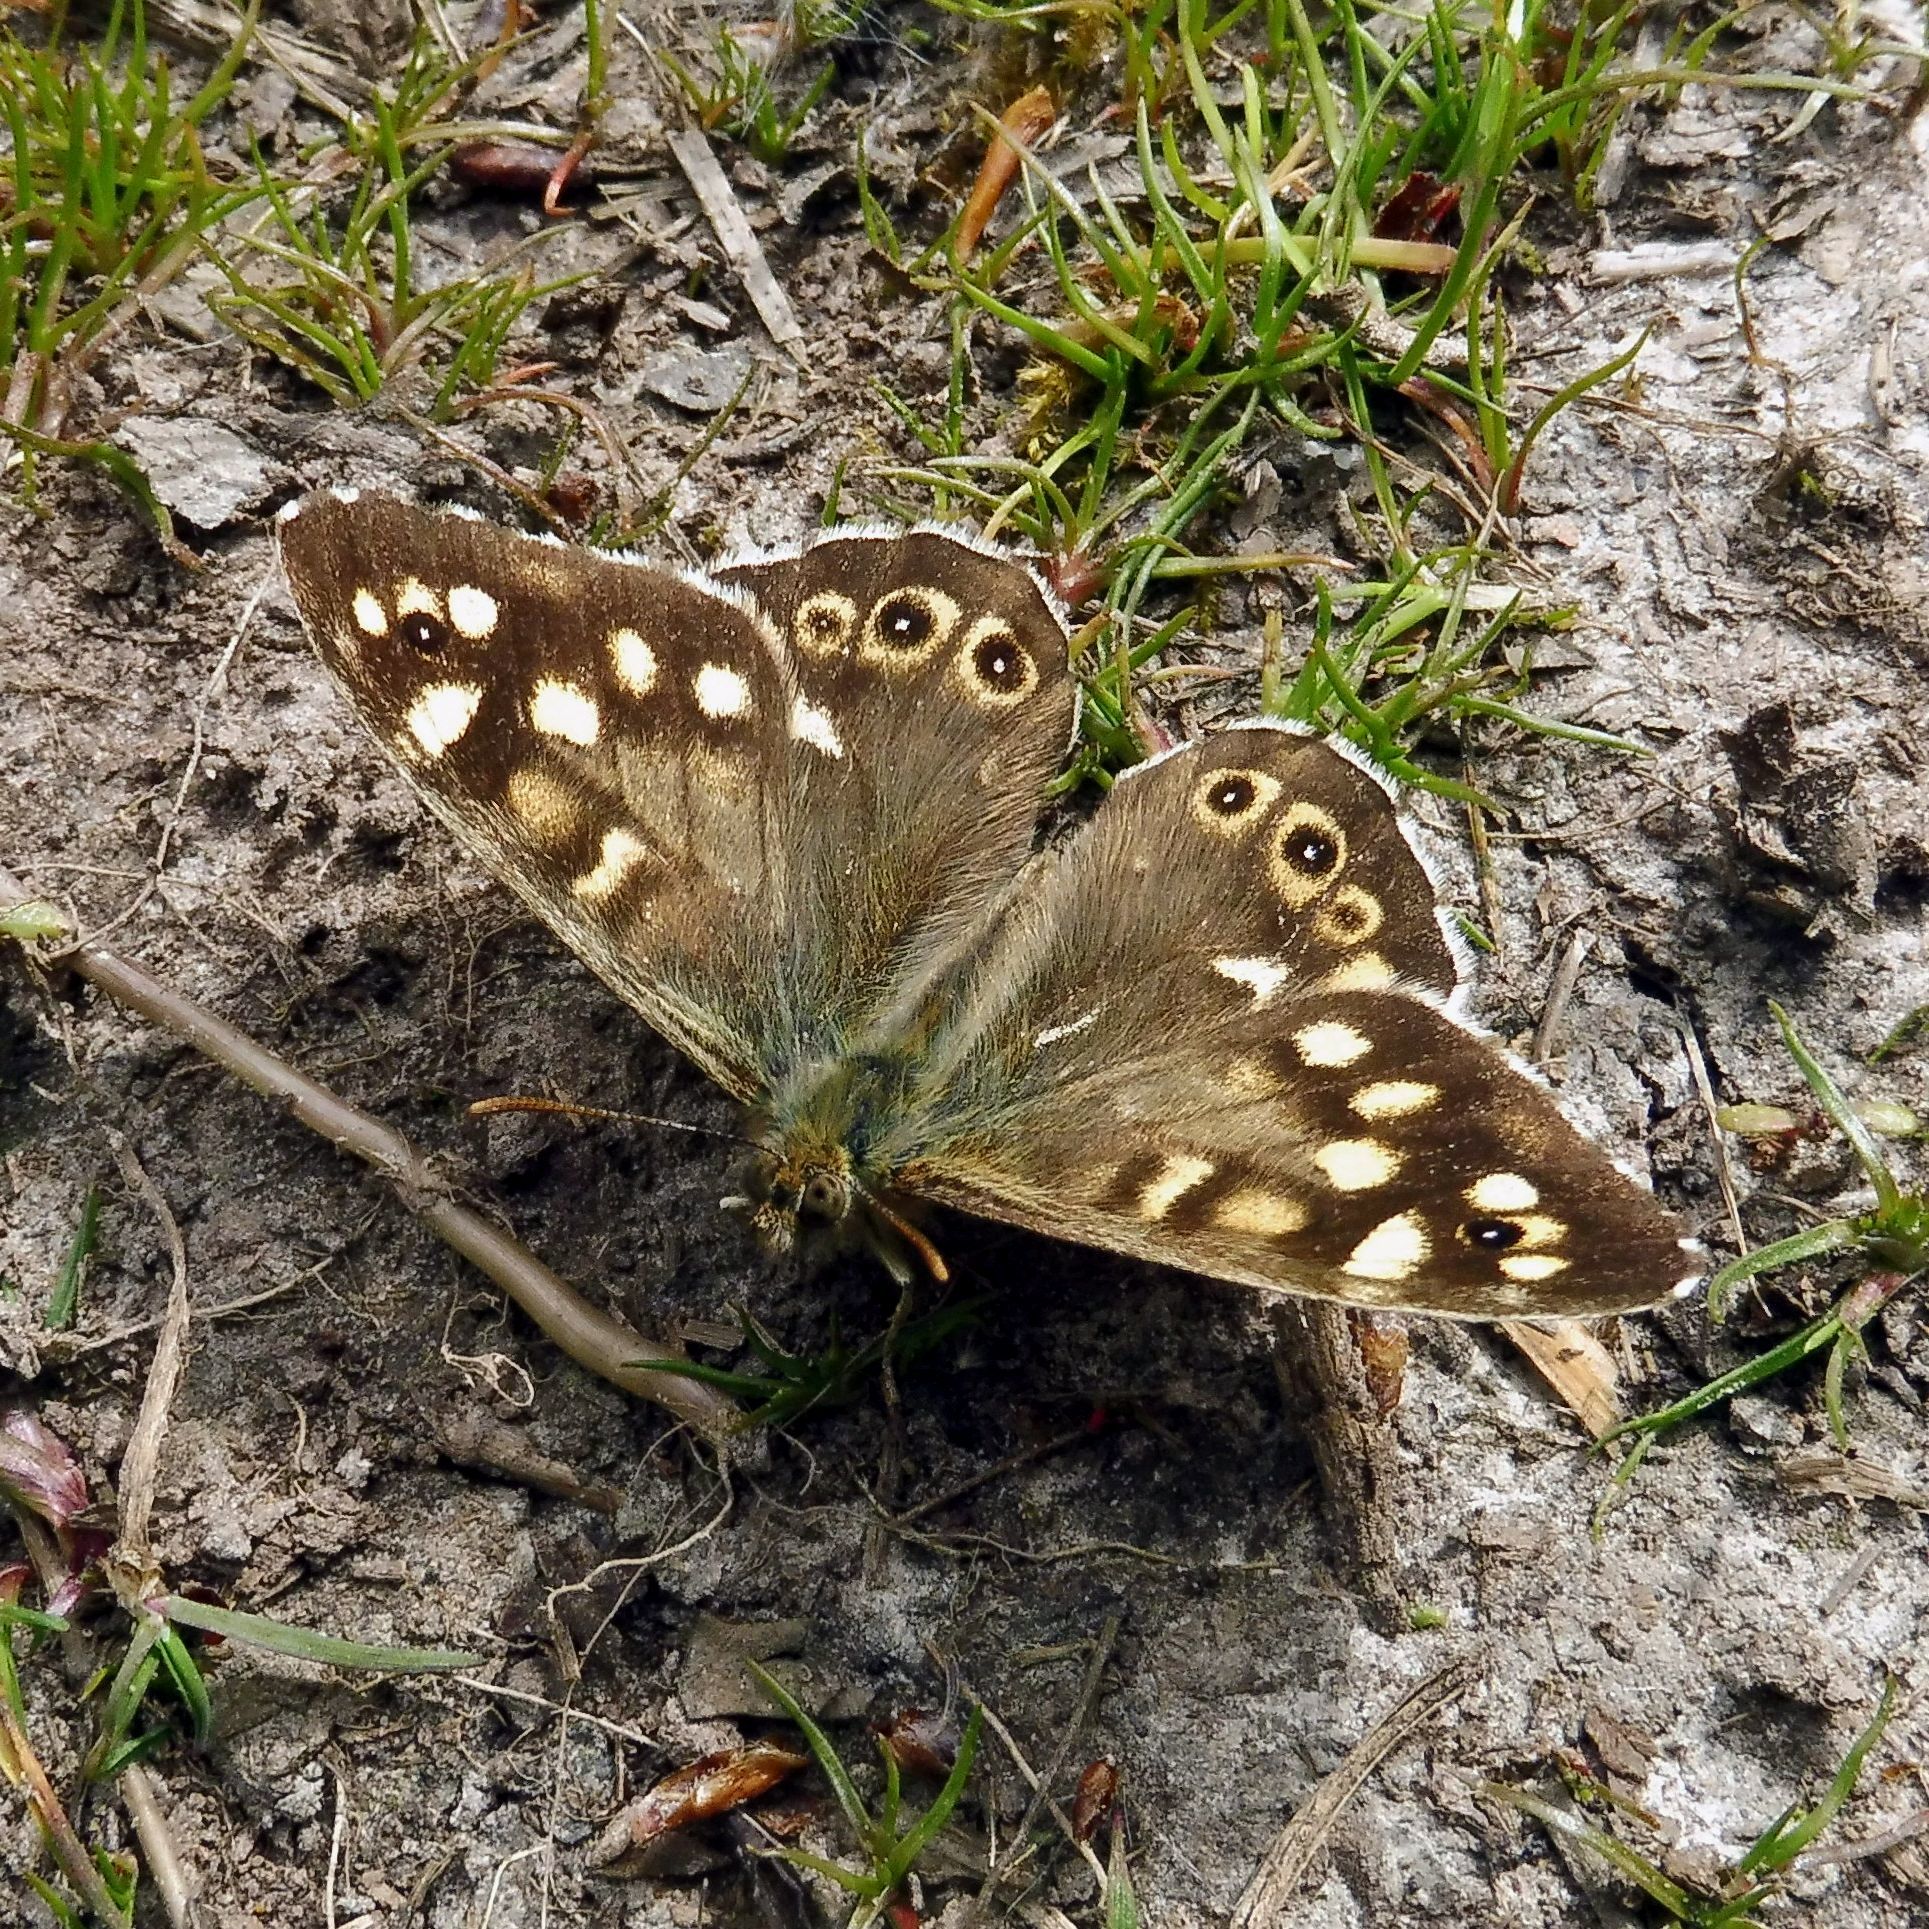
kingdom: Animalia
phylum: Arthropoda
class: Insecta
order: Lepidoptera
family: Nymphalidae
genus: Pararge
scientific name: Pararge aegeria
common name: Speckled wood
